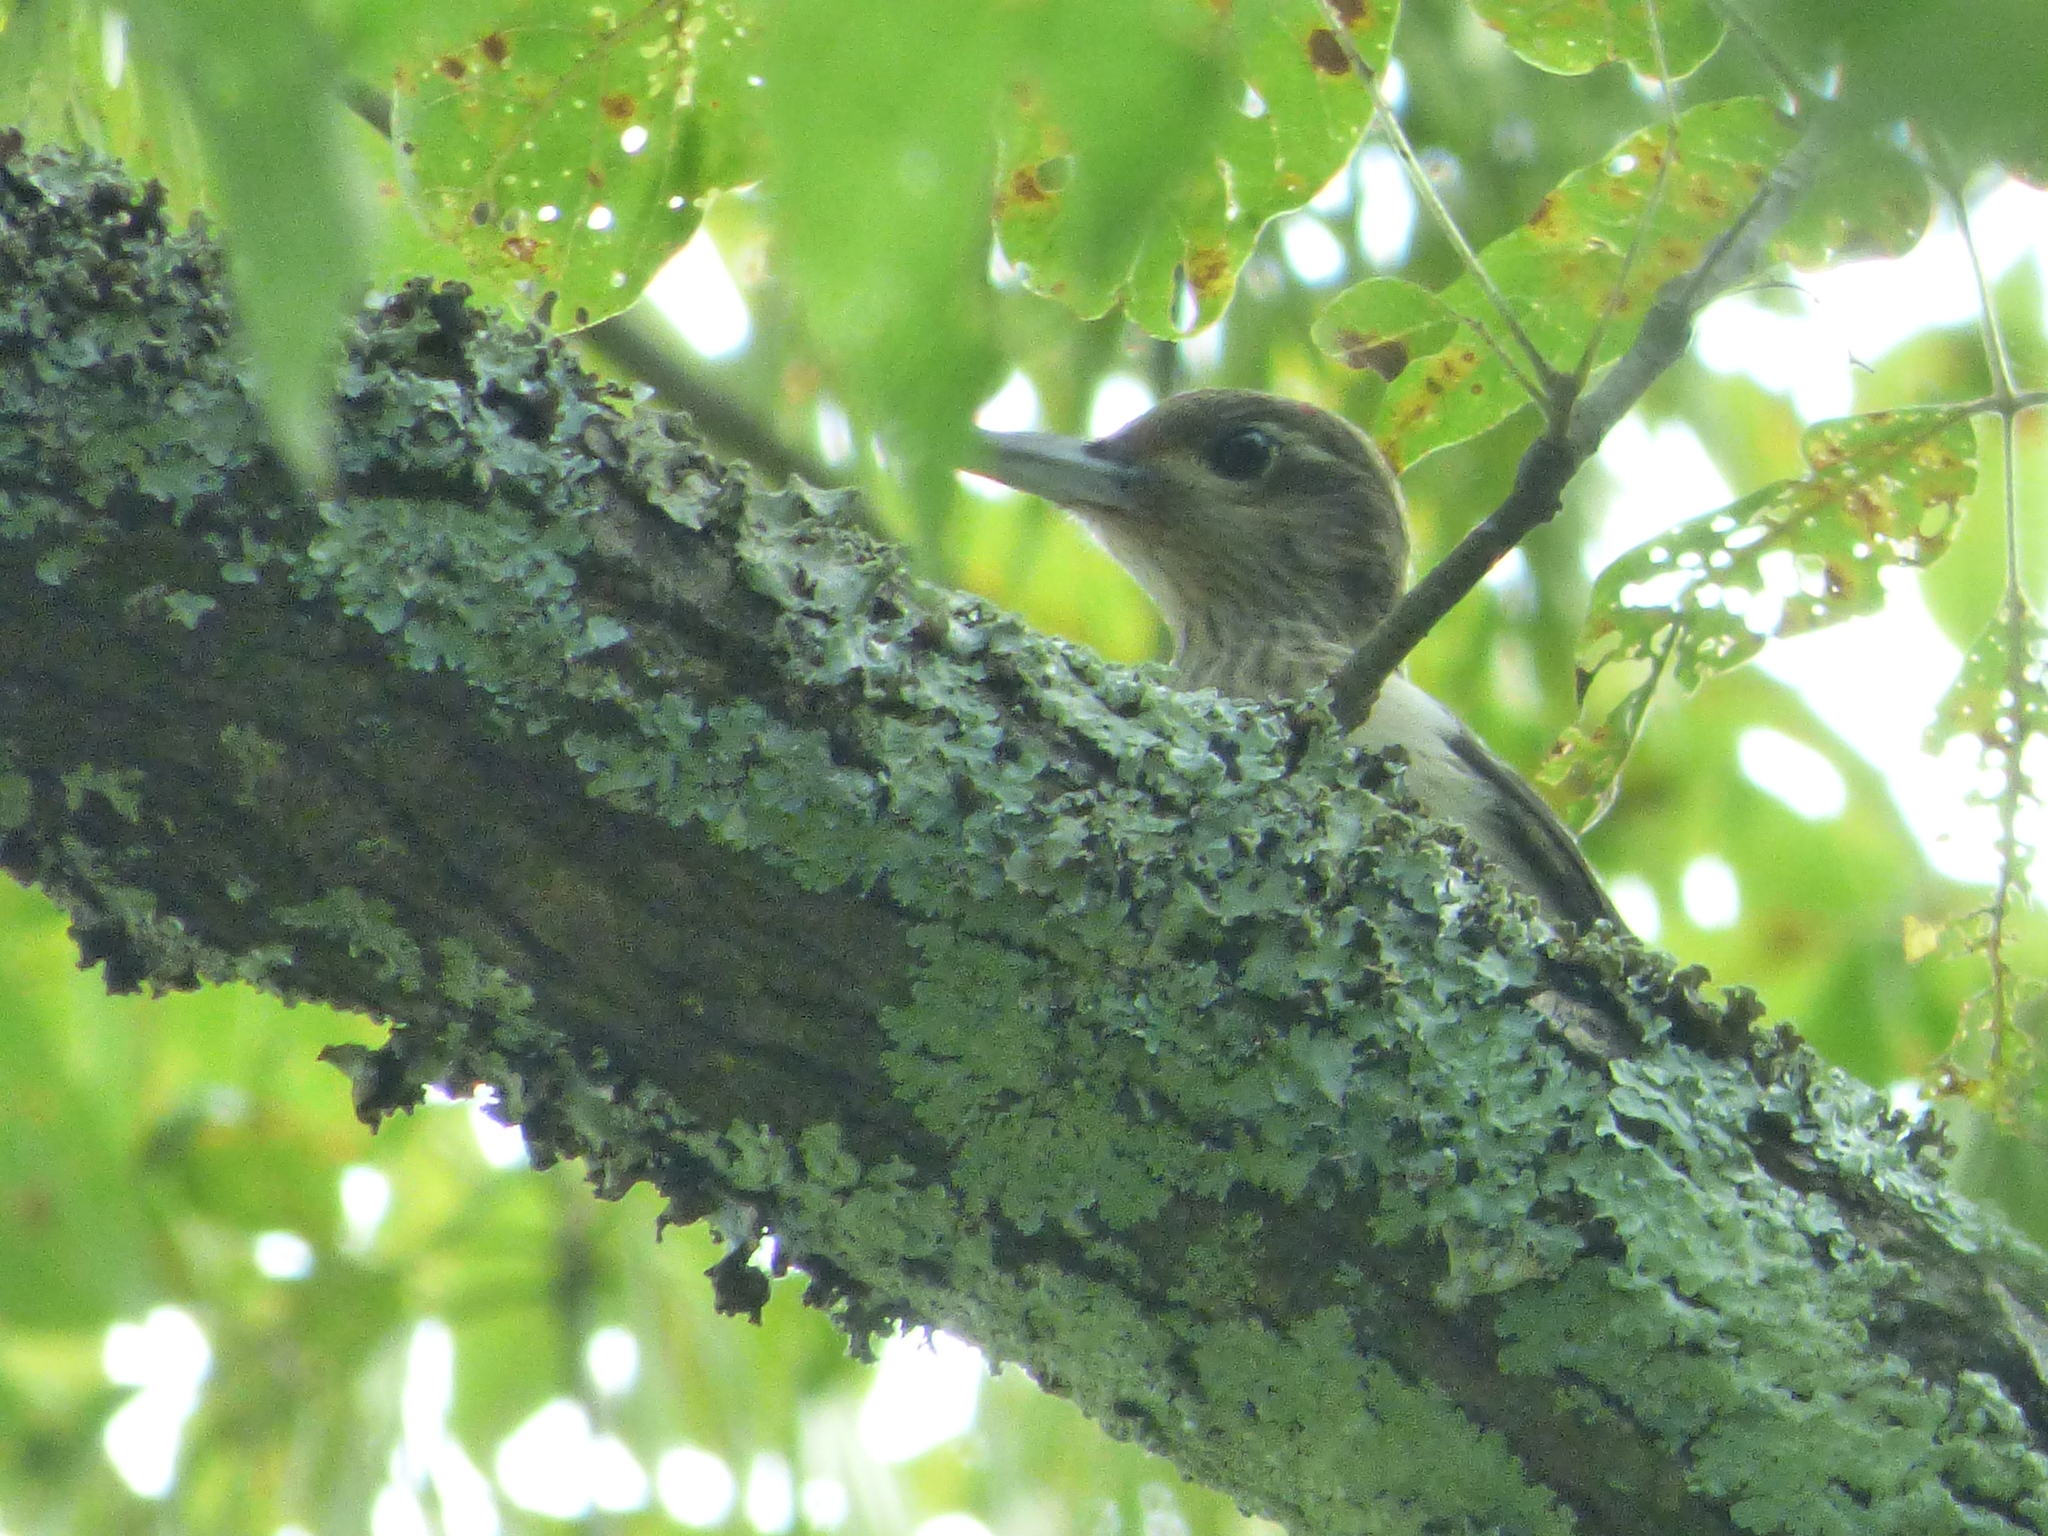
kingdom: Animalia
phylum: Chordata
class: Aves
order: Piciformes
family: Picidae
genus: Melanerpes
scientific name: Melanerpes erythrocephalus
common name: Red-headed woodpecker
